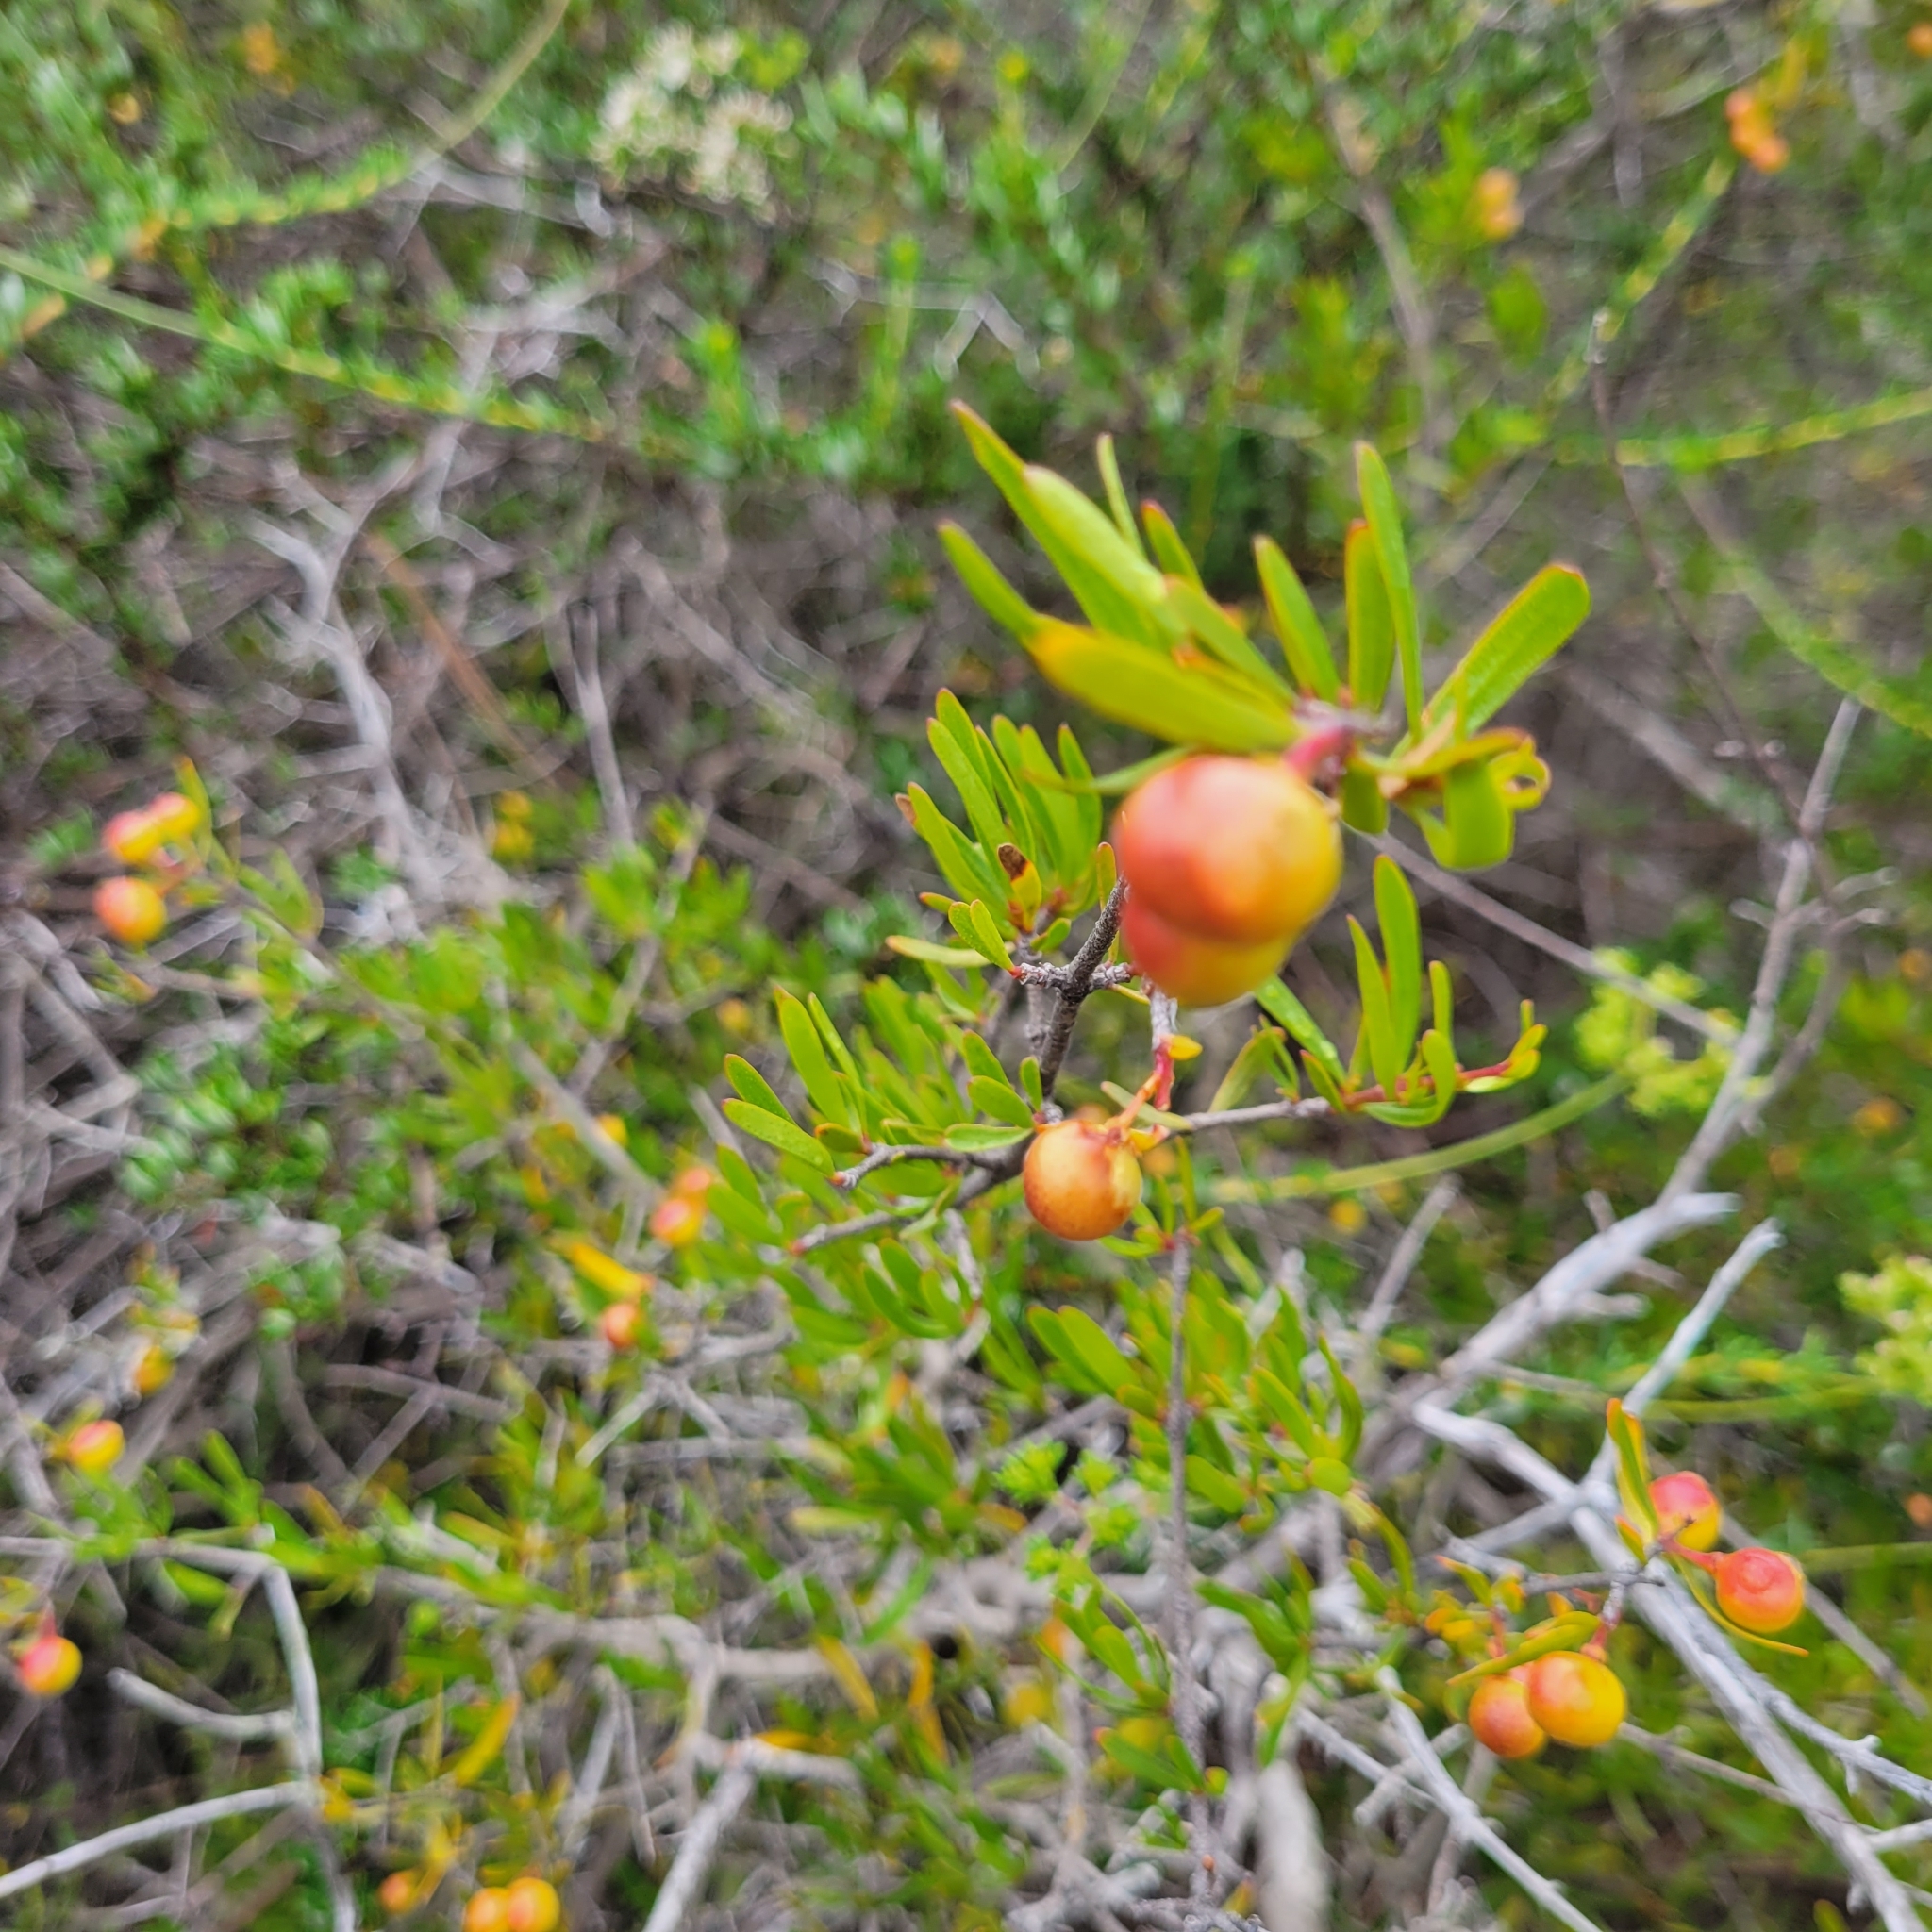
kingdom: Plantae
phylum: Tracheophyta
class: Magnoliopsida
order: Sapindales
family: Rutaceae
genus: Cneoridium
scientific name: Cneoridium dumosum
